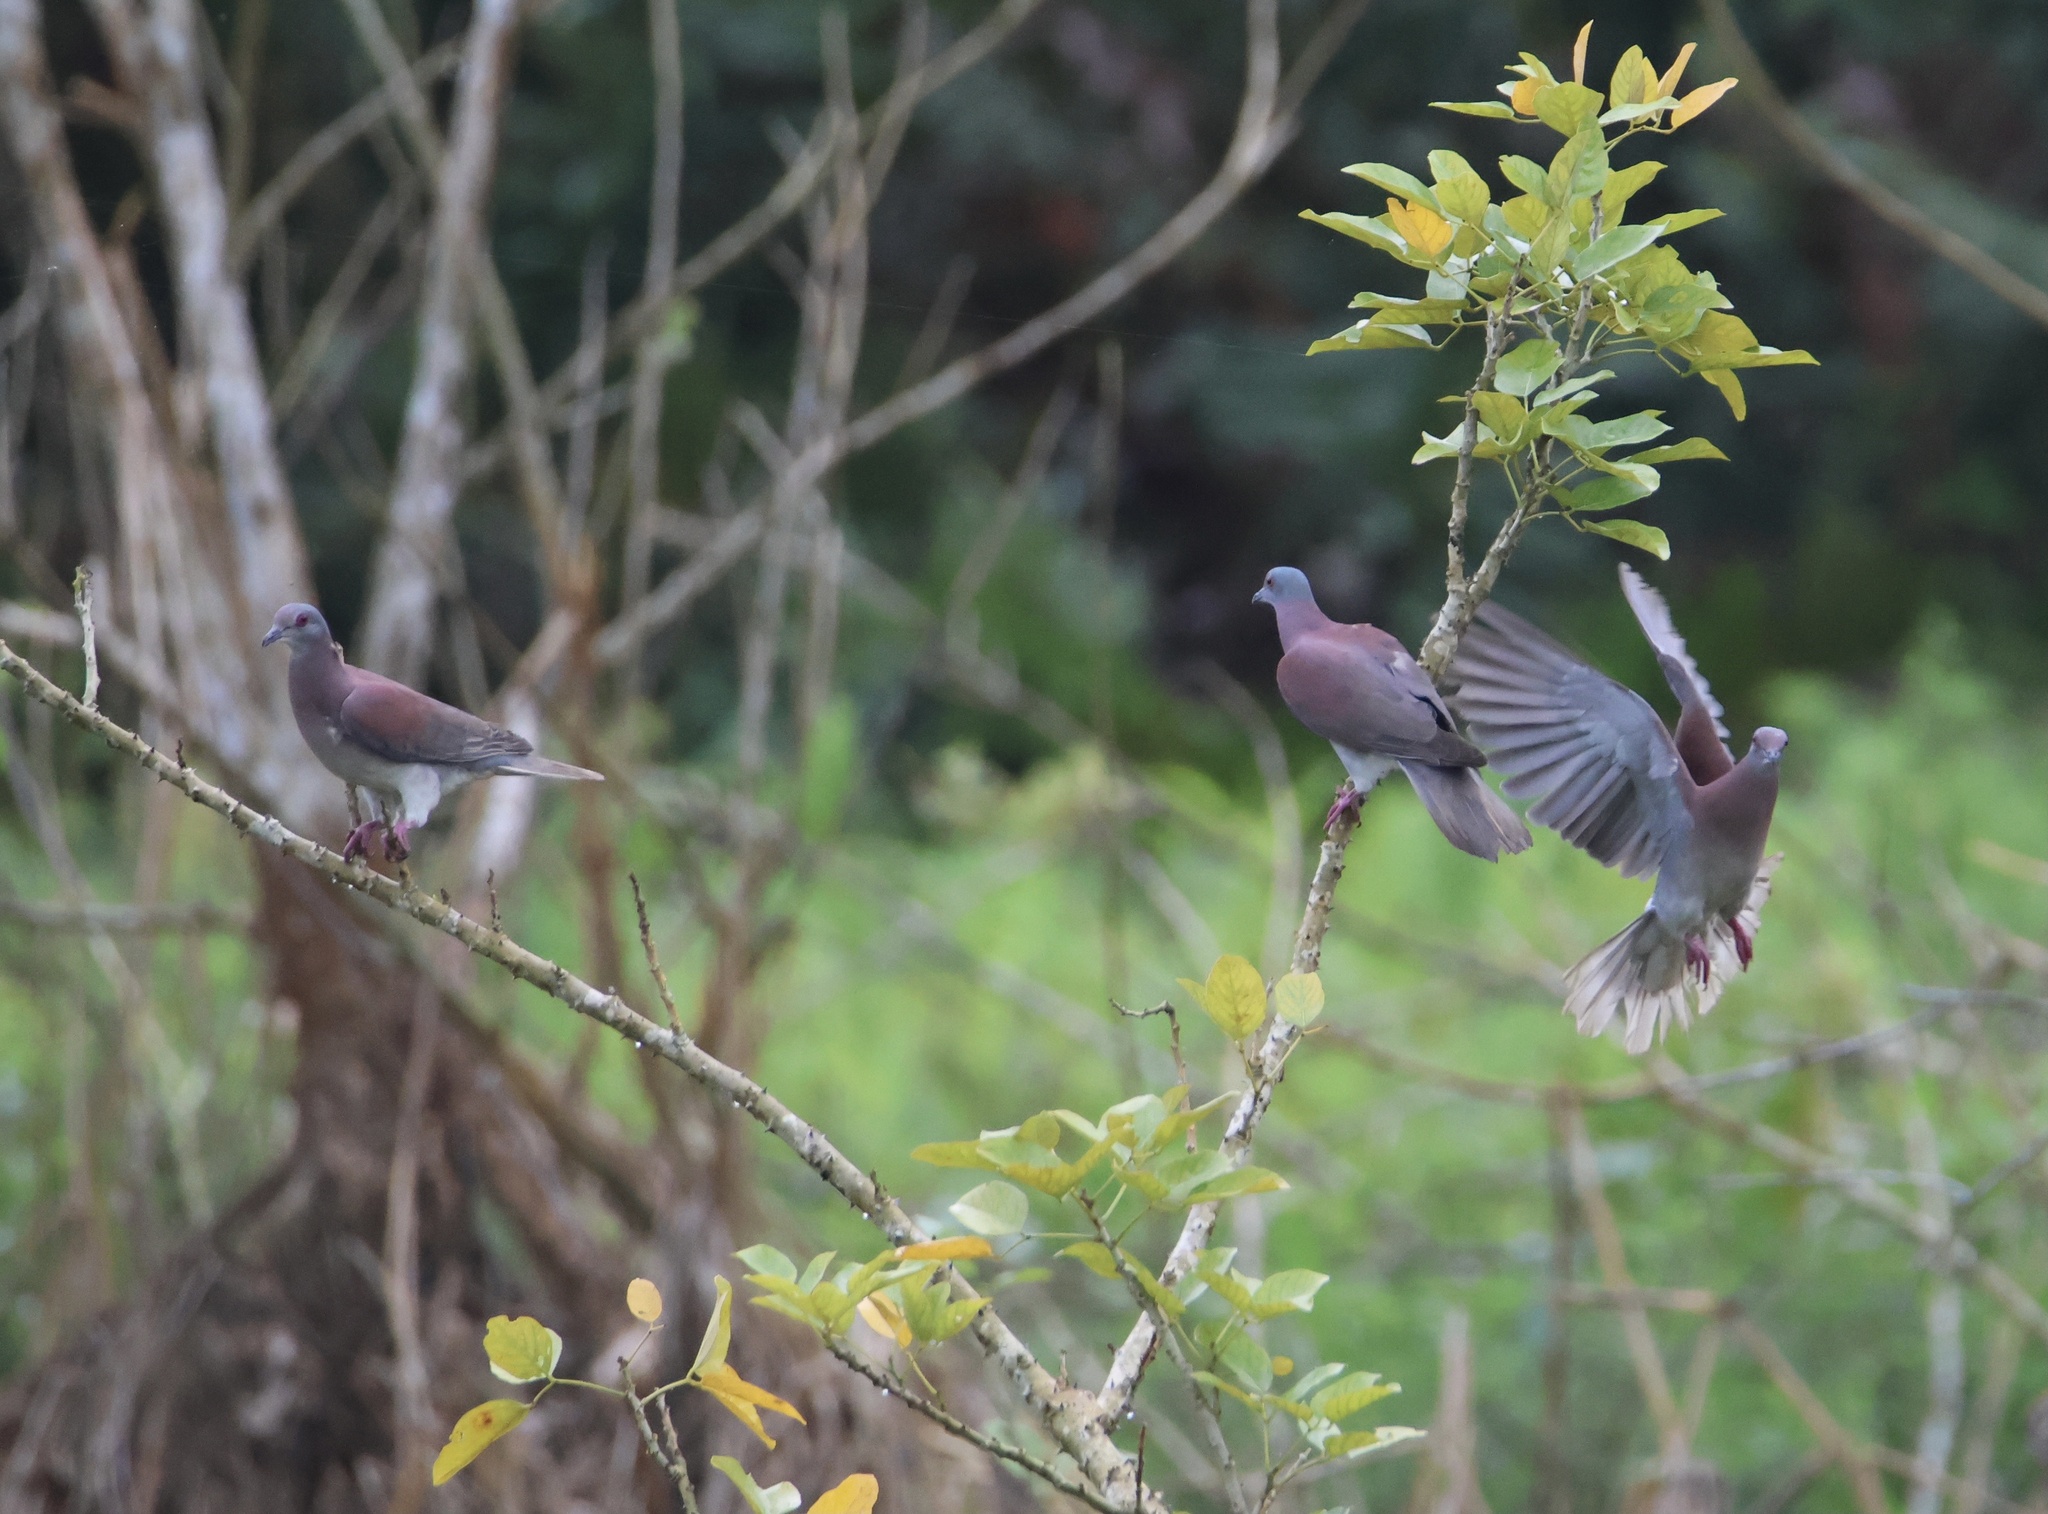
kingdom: Animalia
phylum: Chordata
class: Aves
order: Columbiformes
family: Columbidae
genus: Patagioenas
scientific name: Patagioenas cayennensis
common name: Pale-vented pigeon
